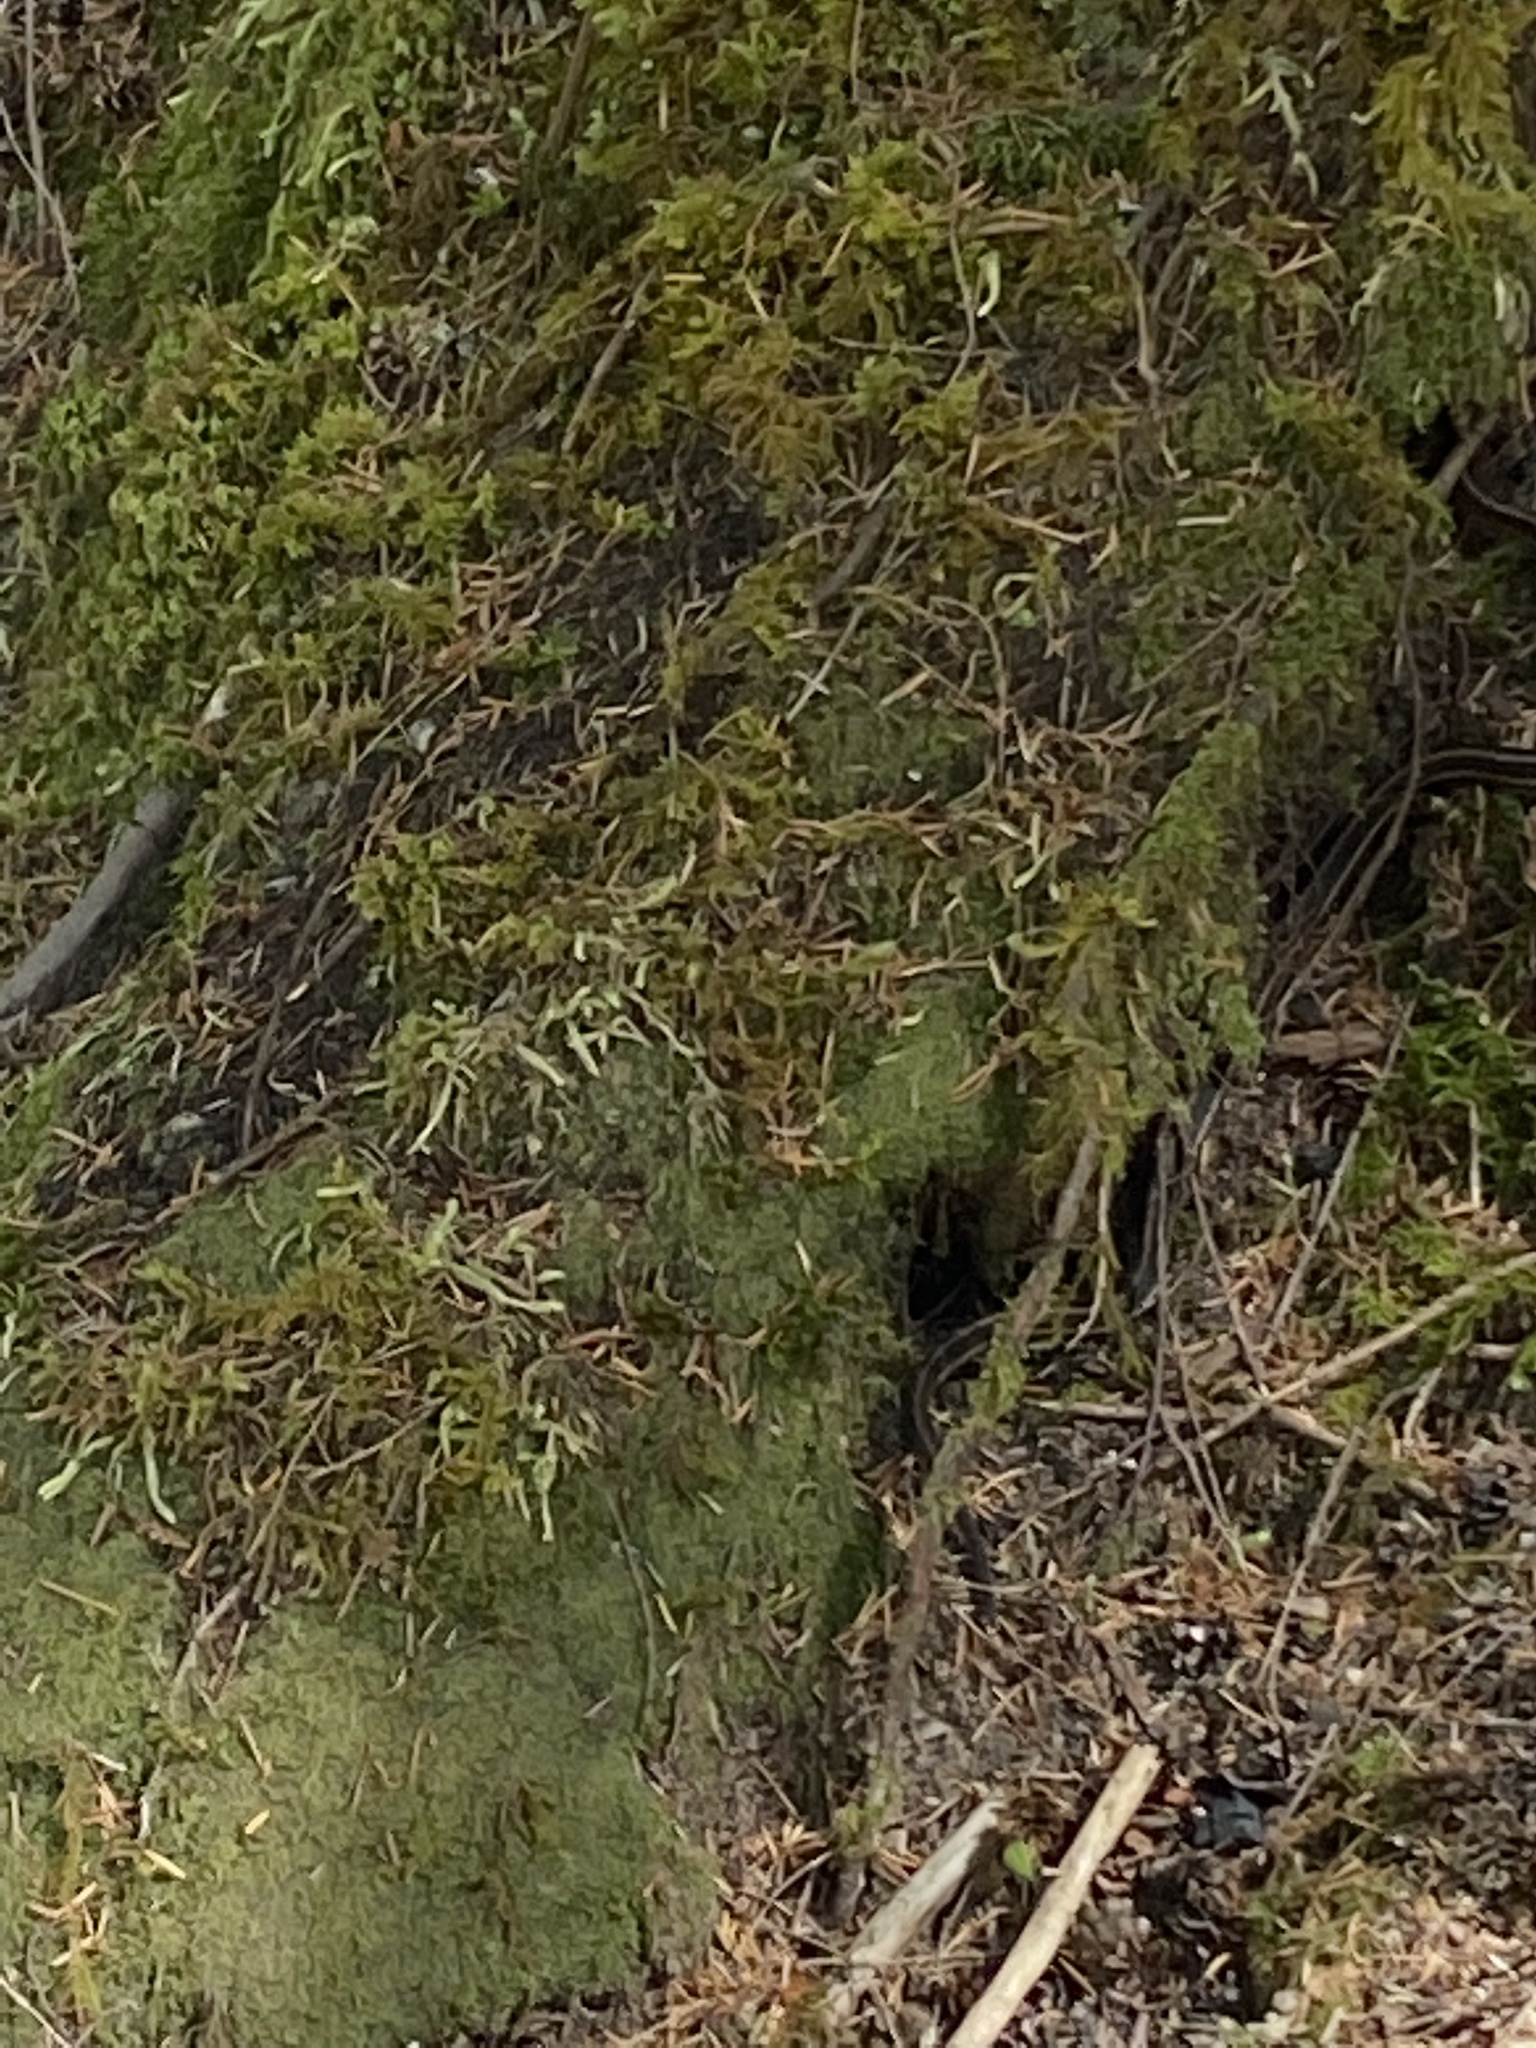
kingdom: Animalia
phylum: Chordata
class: Squamata
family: Colubridae
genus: Thamnophis
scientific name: Thamnophis
